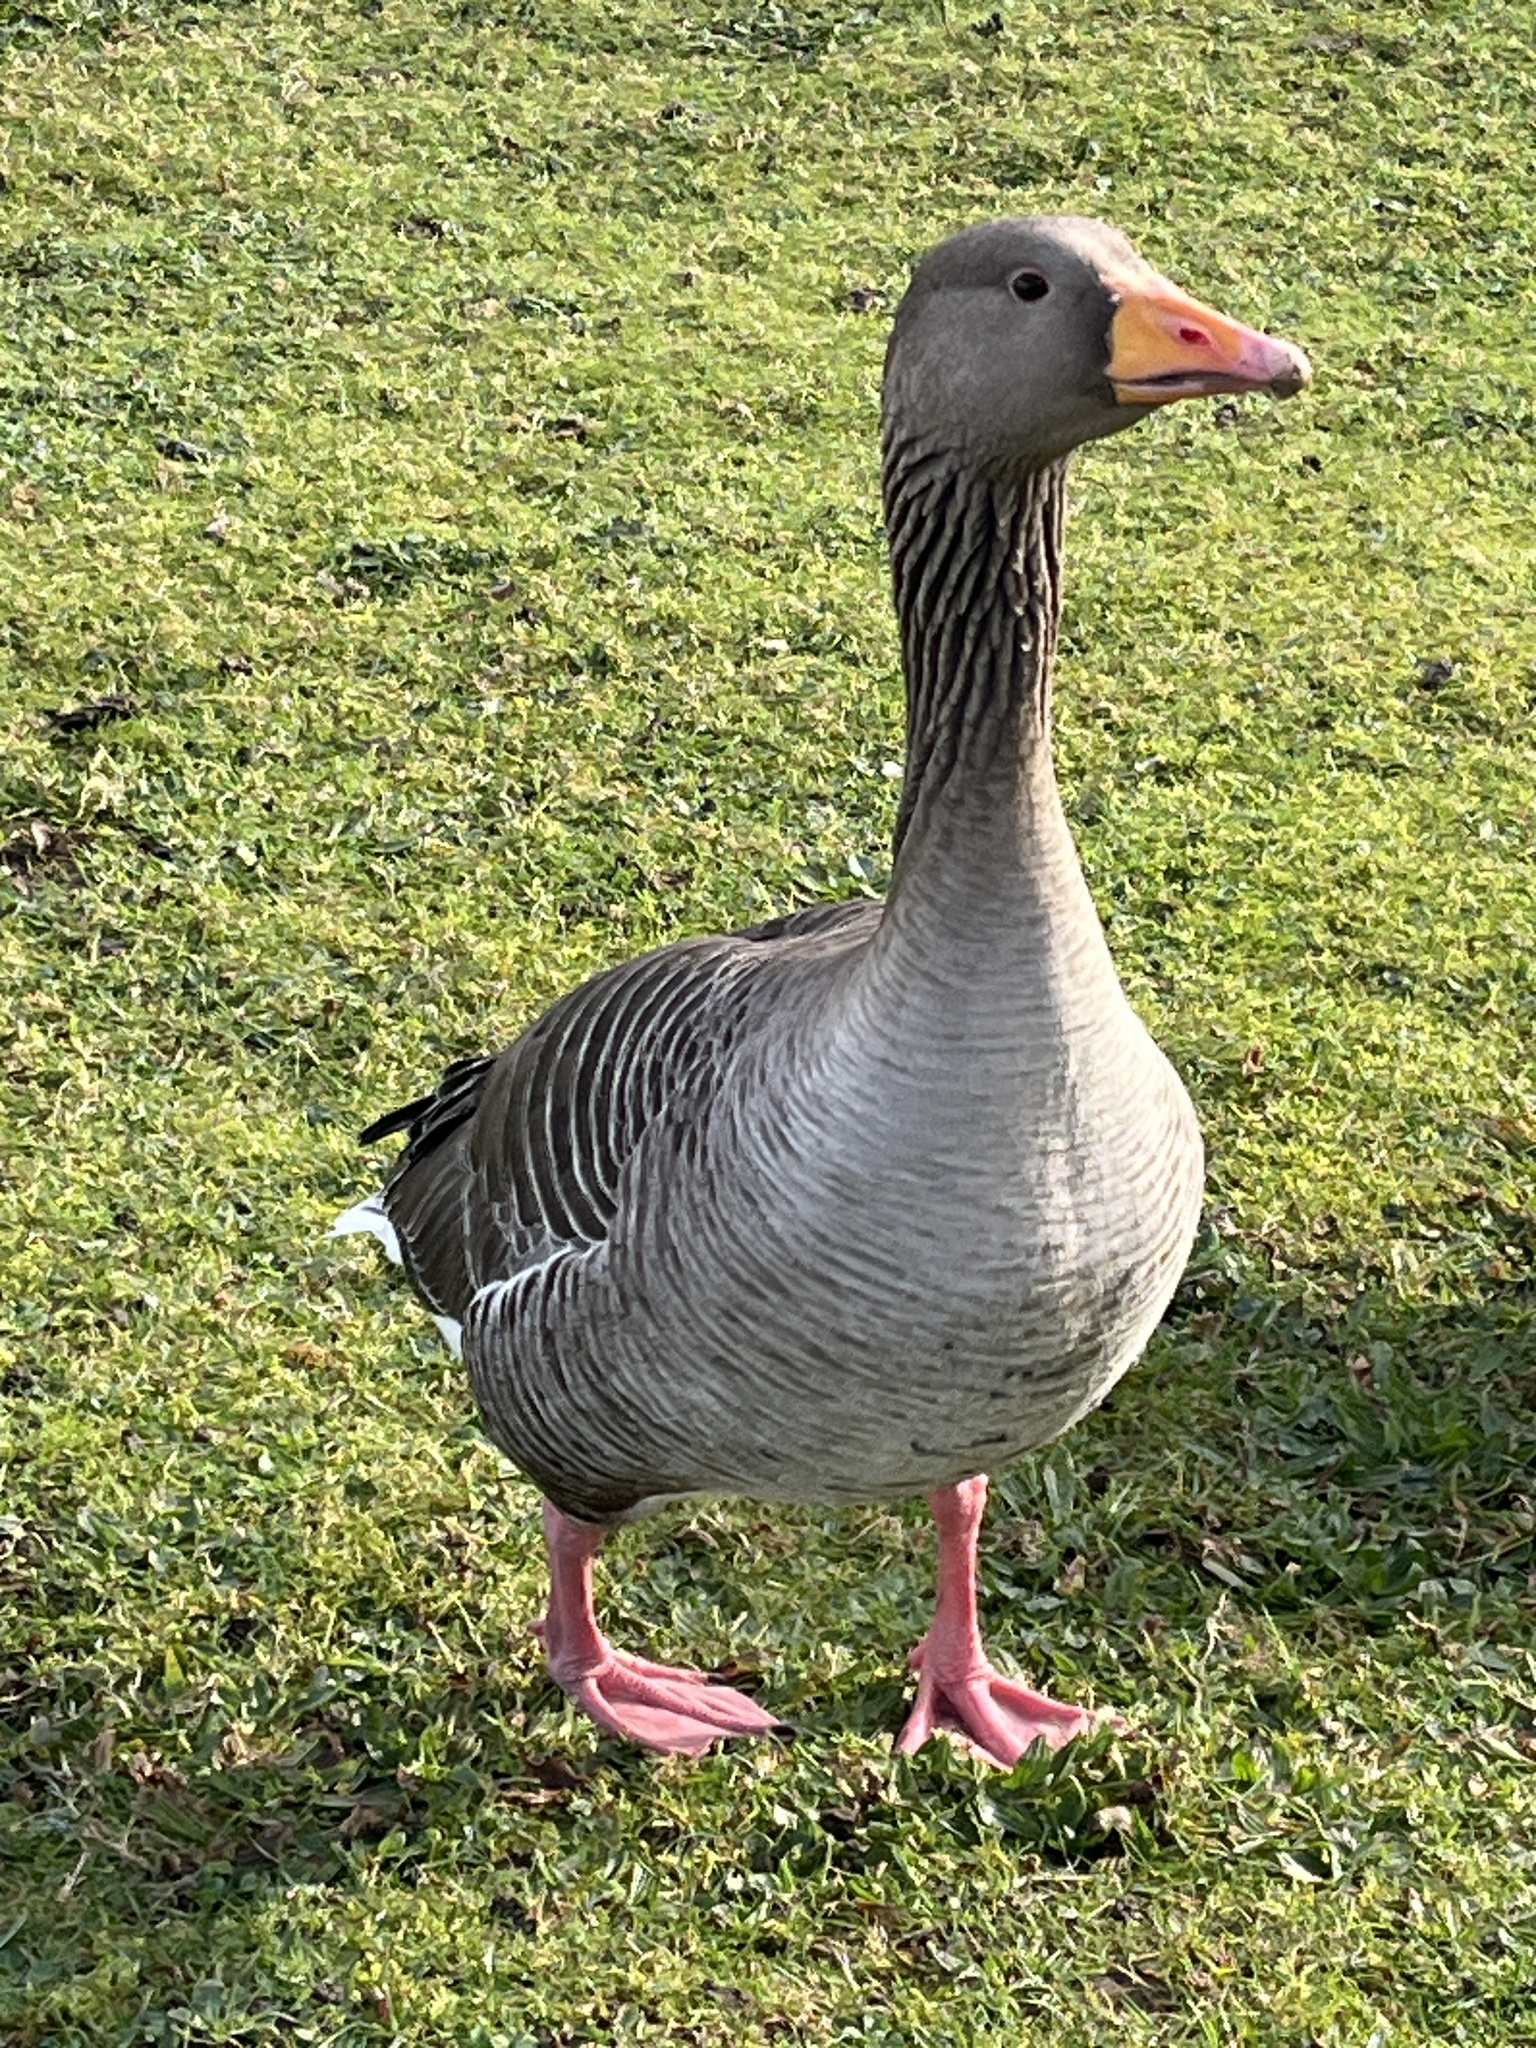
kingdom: Animalia
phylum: Chordata
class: Aves
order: Anseriformes
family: Anatidae
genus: Anser
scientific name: Anser anser
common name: Greylag goose
